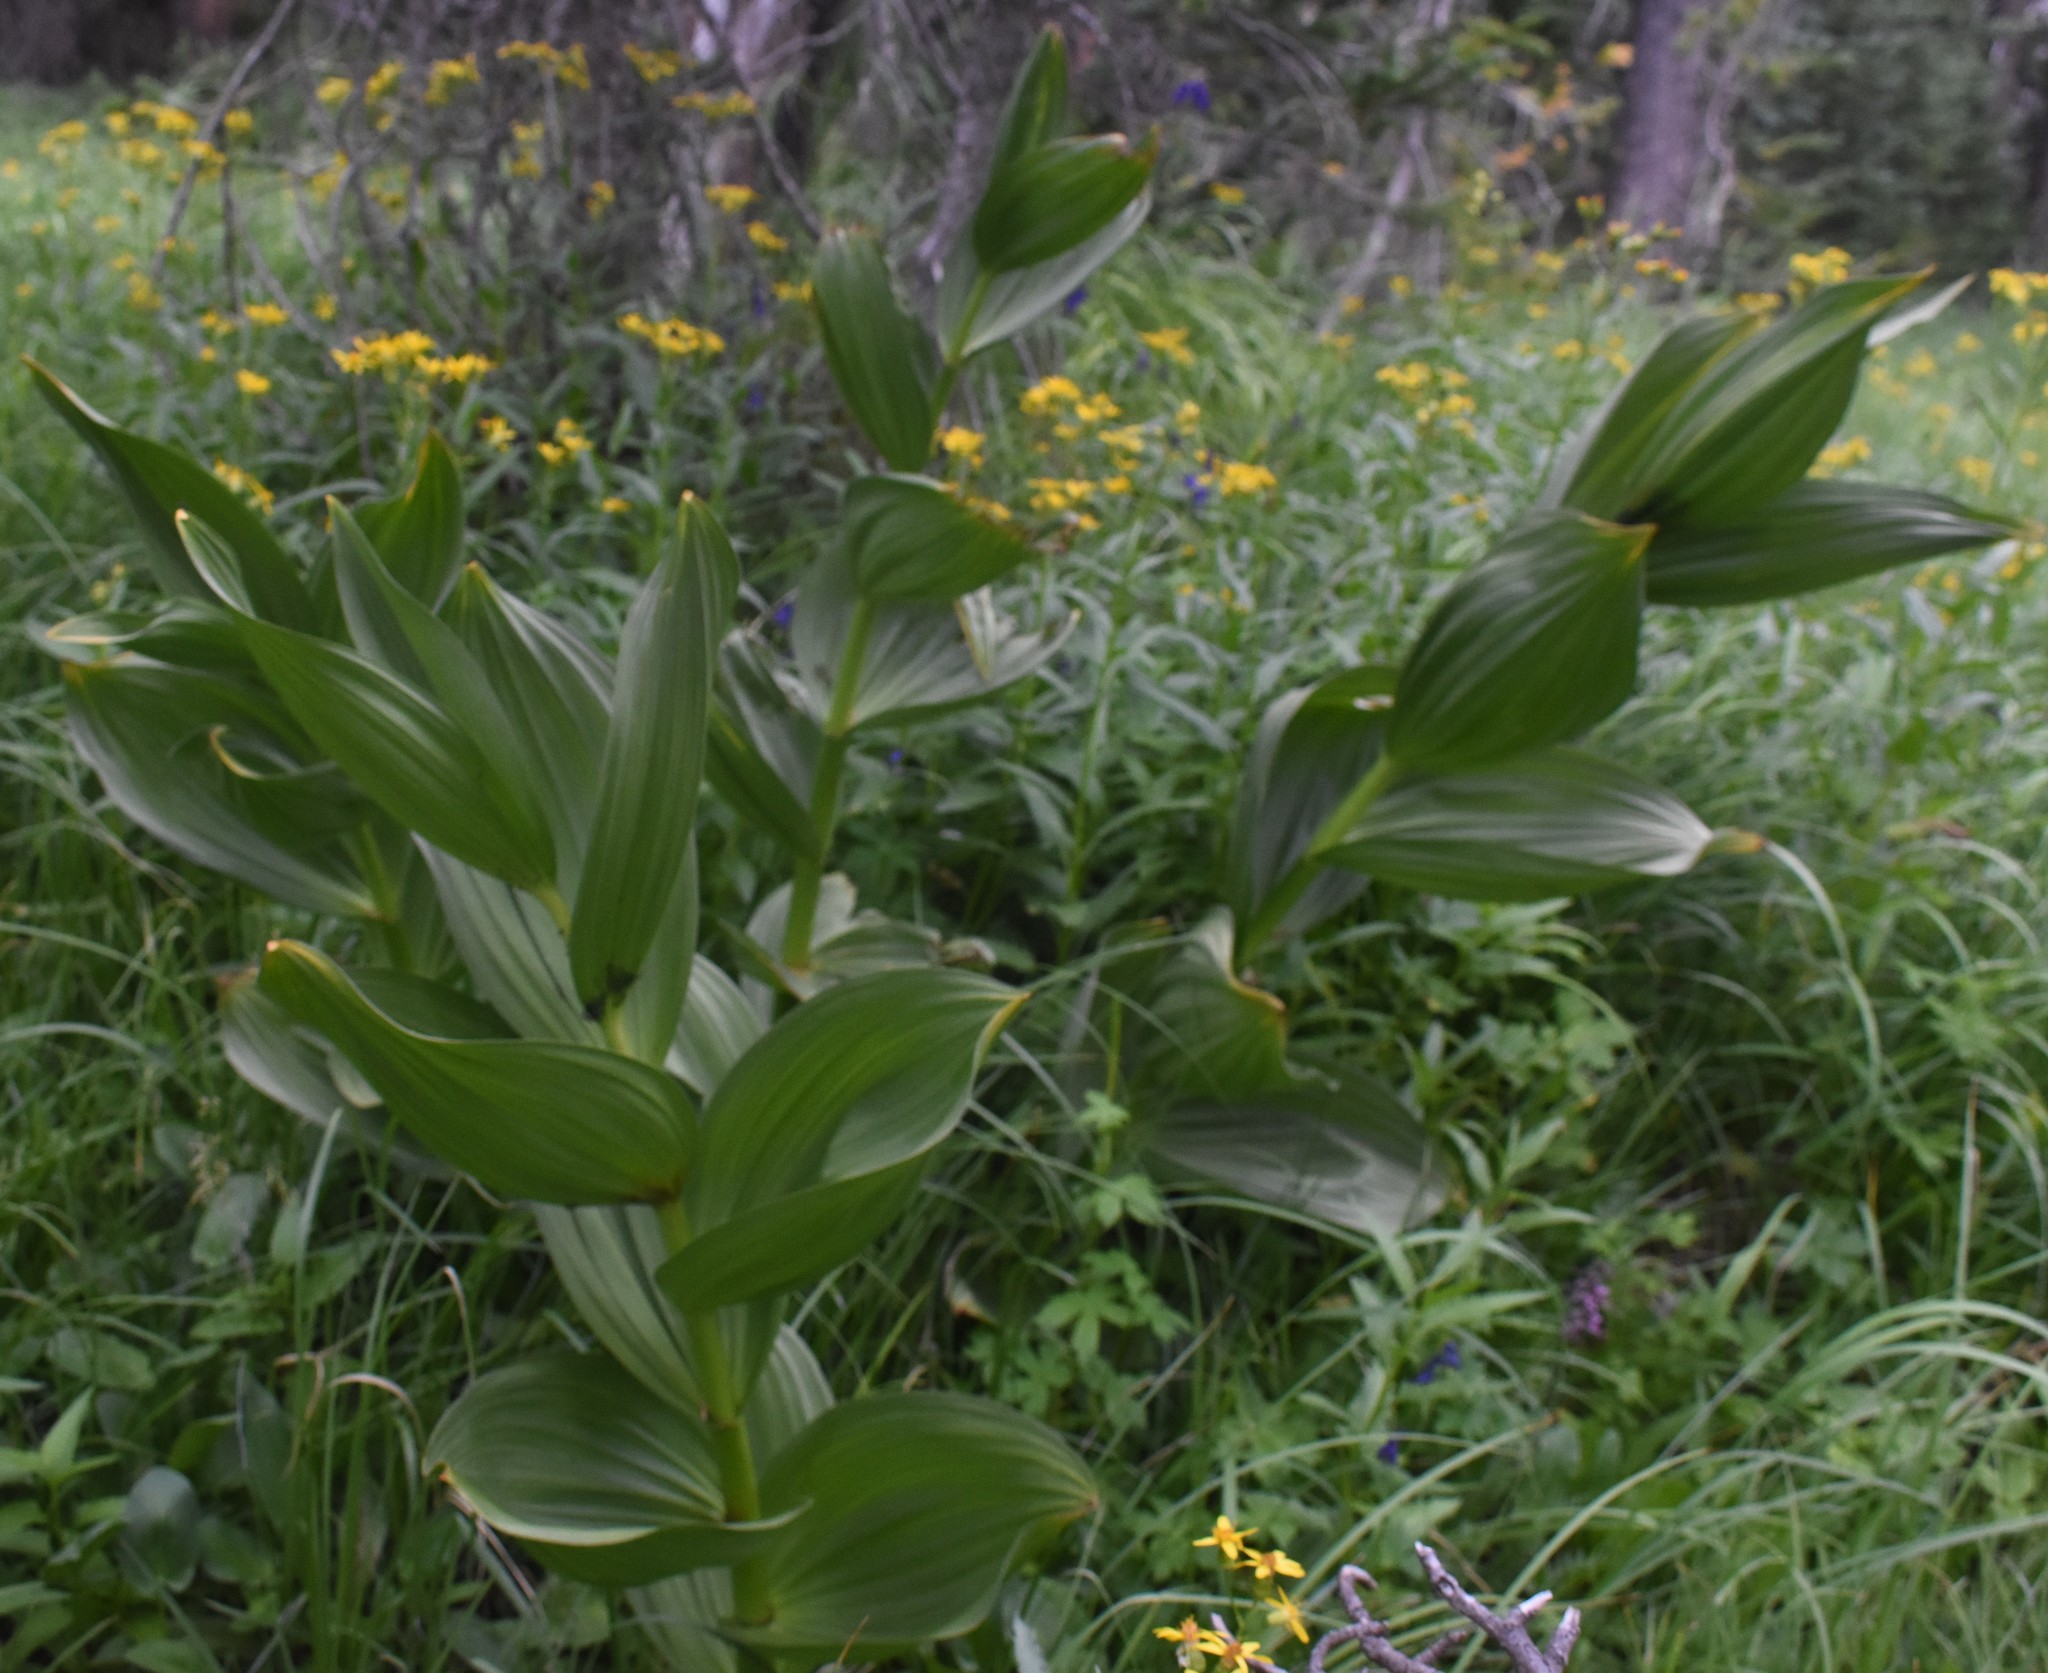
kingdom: Plantae
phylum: Tracheophyta
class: Liliopsida
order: Liliales
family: Melanthiaceae
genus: Veratrum
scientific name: Veratrum californicum
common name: California veratrum
